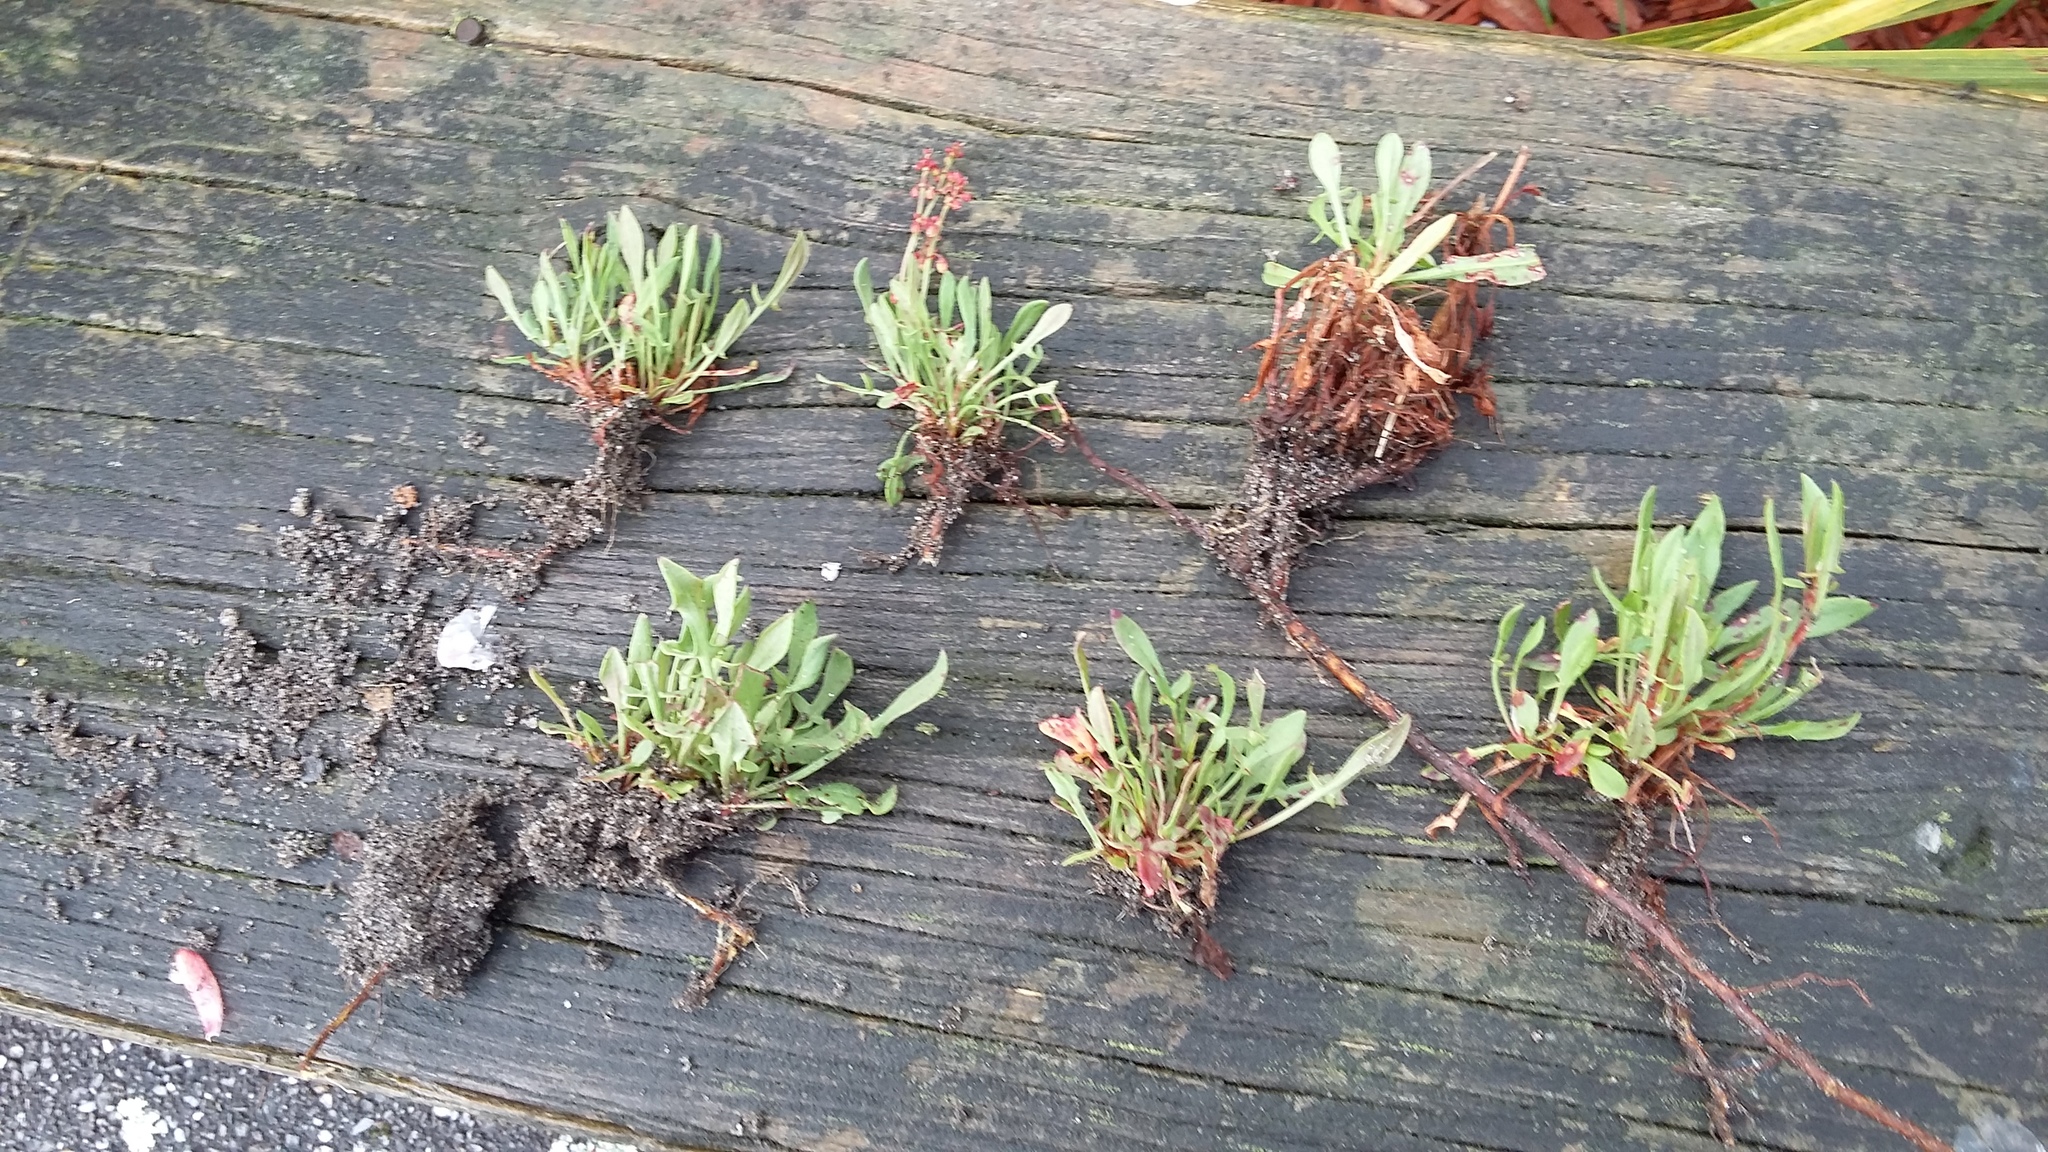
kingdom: Plantae
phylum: Tracheophyta
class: Magnoliopsida
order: Caryophyllales
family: Polygonaceae
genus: Rumex
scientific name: Rumex acetosella
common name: Common sheep sorrel
